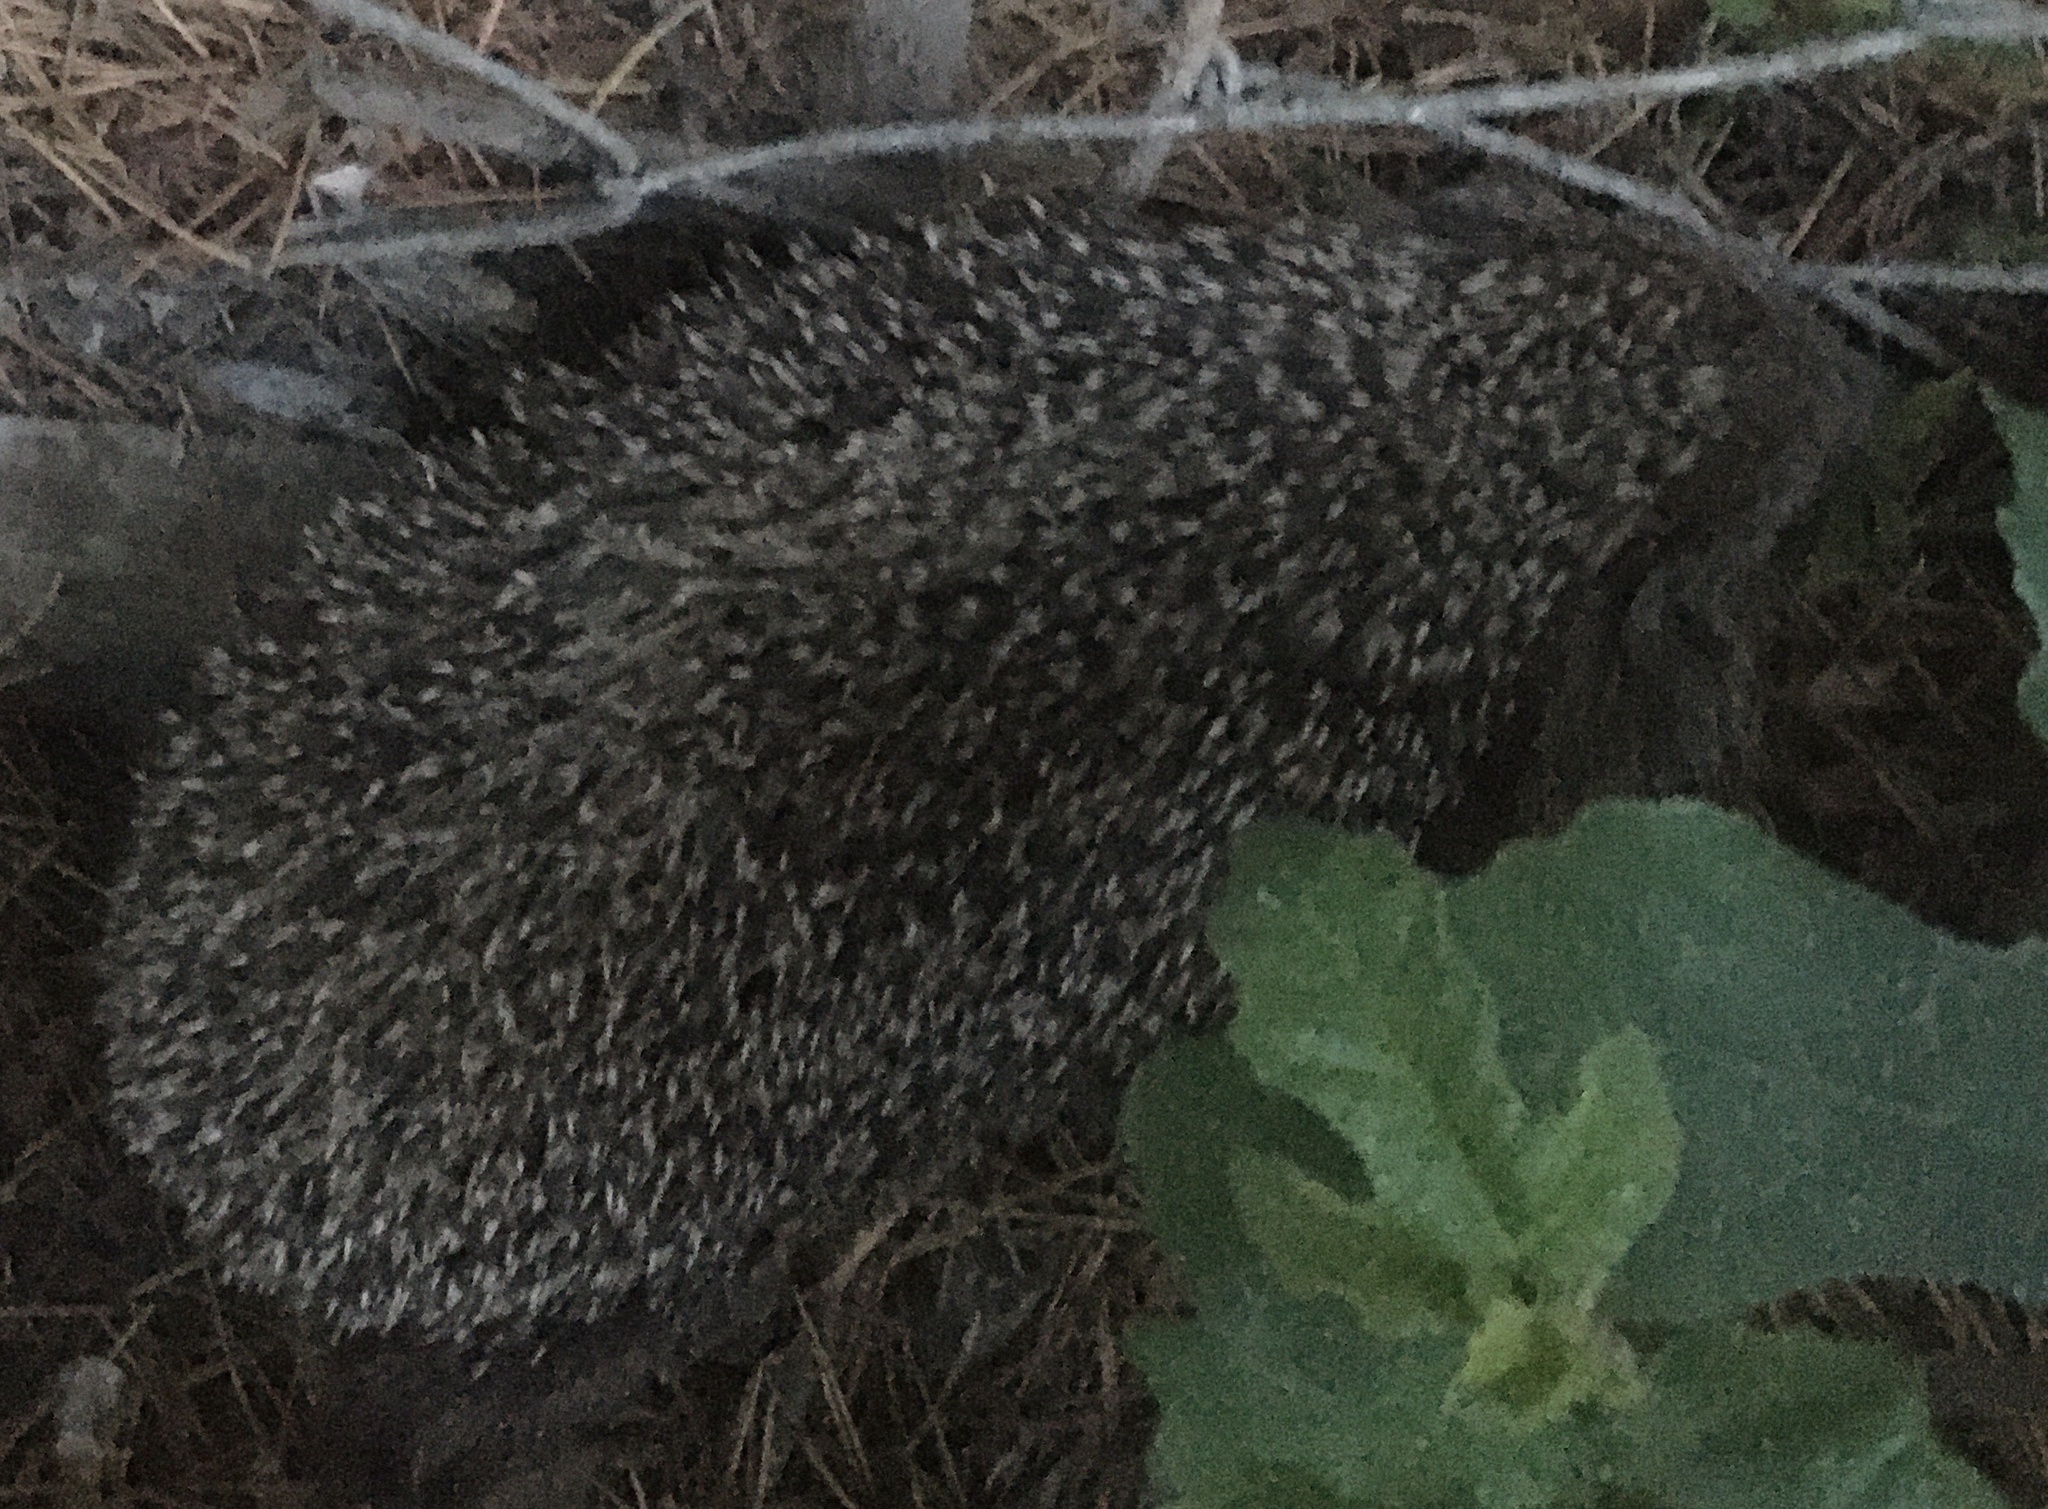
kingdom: Animalia
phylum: Chordata
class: Mammalia
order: Erinaceomorpha
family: Erinaceidae
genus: Erinaceus
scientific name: Erinaceus roumanicus
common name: Northern white-breasted hedgehog
